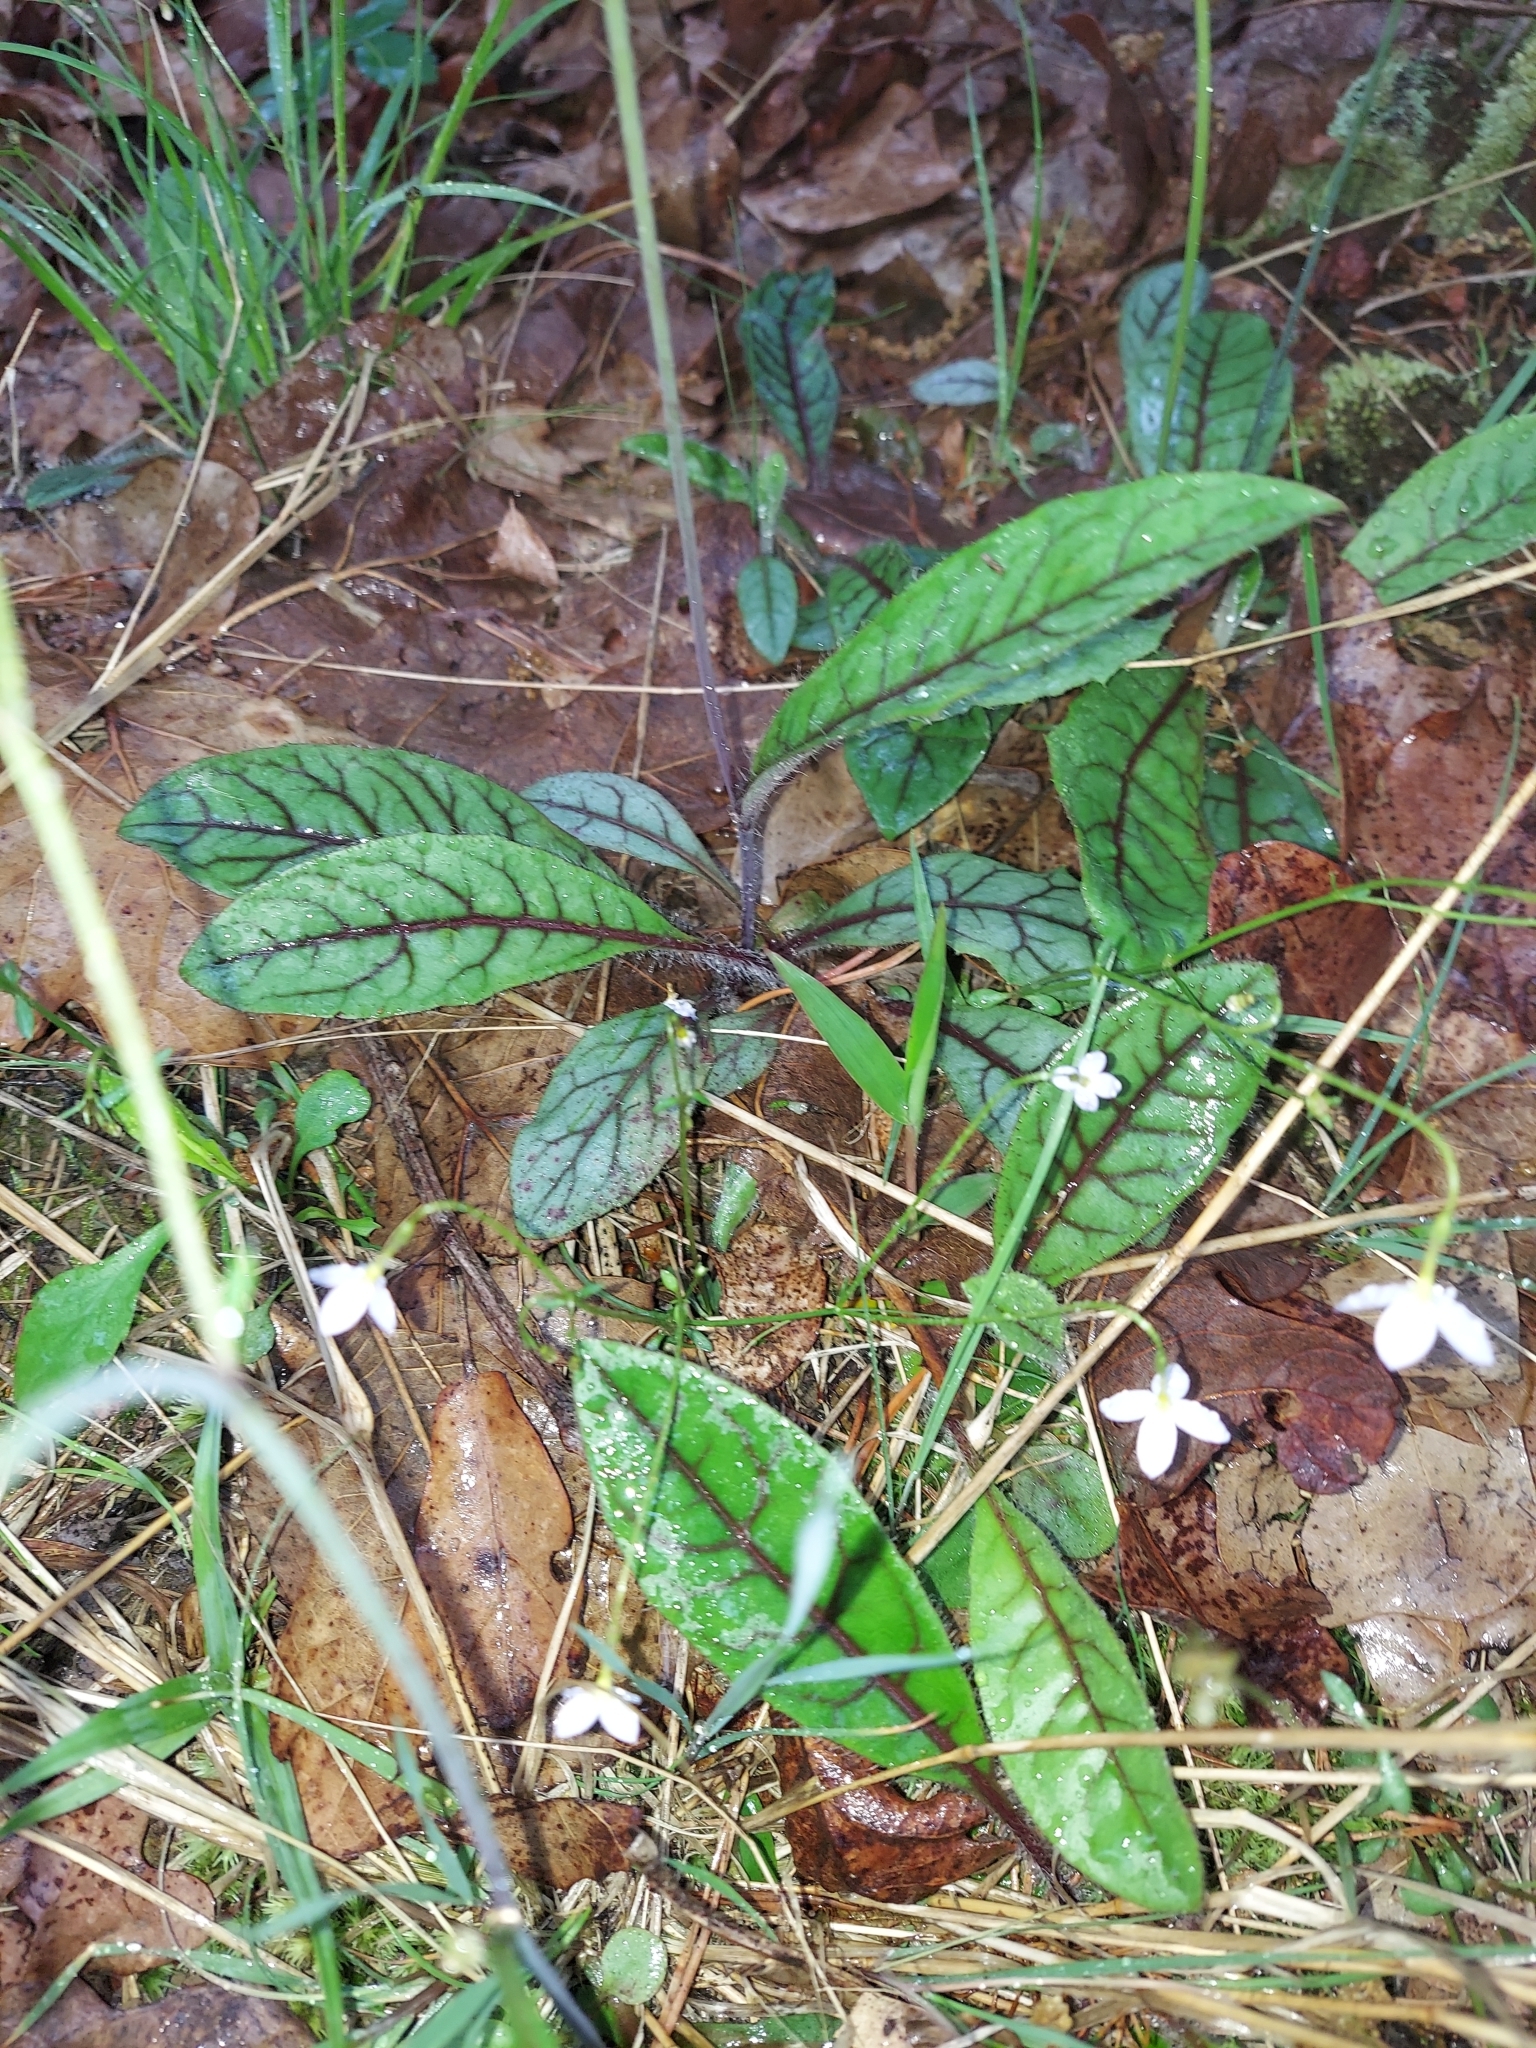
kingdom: Plantae
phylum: Tracheophyta
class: Magnoliopsida
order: Asterales
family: Asteraceae
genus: Hieracium
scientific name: Hieracium venosum
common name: Rattlesnake hawkweed
